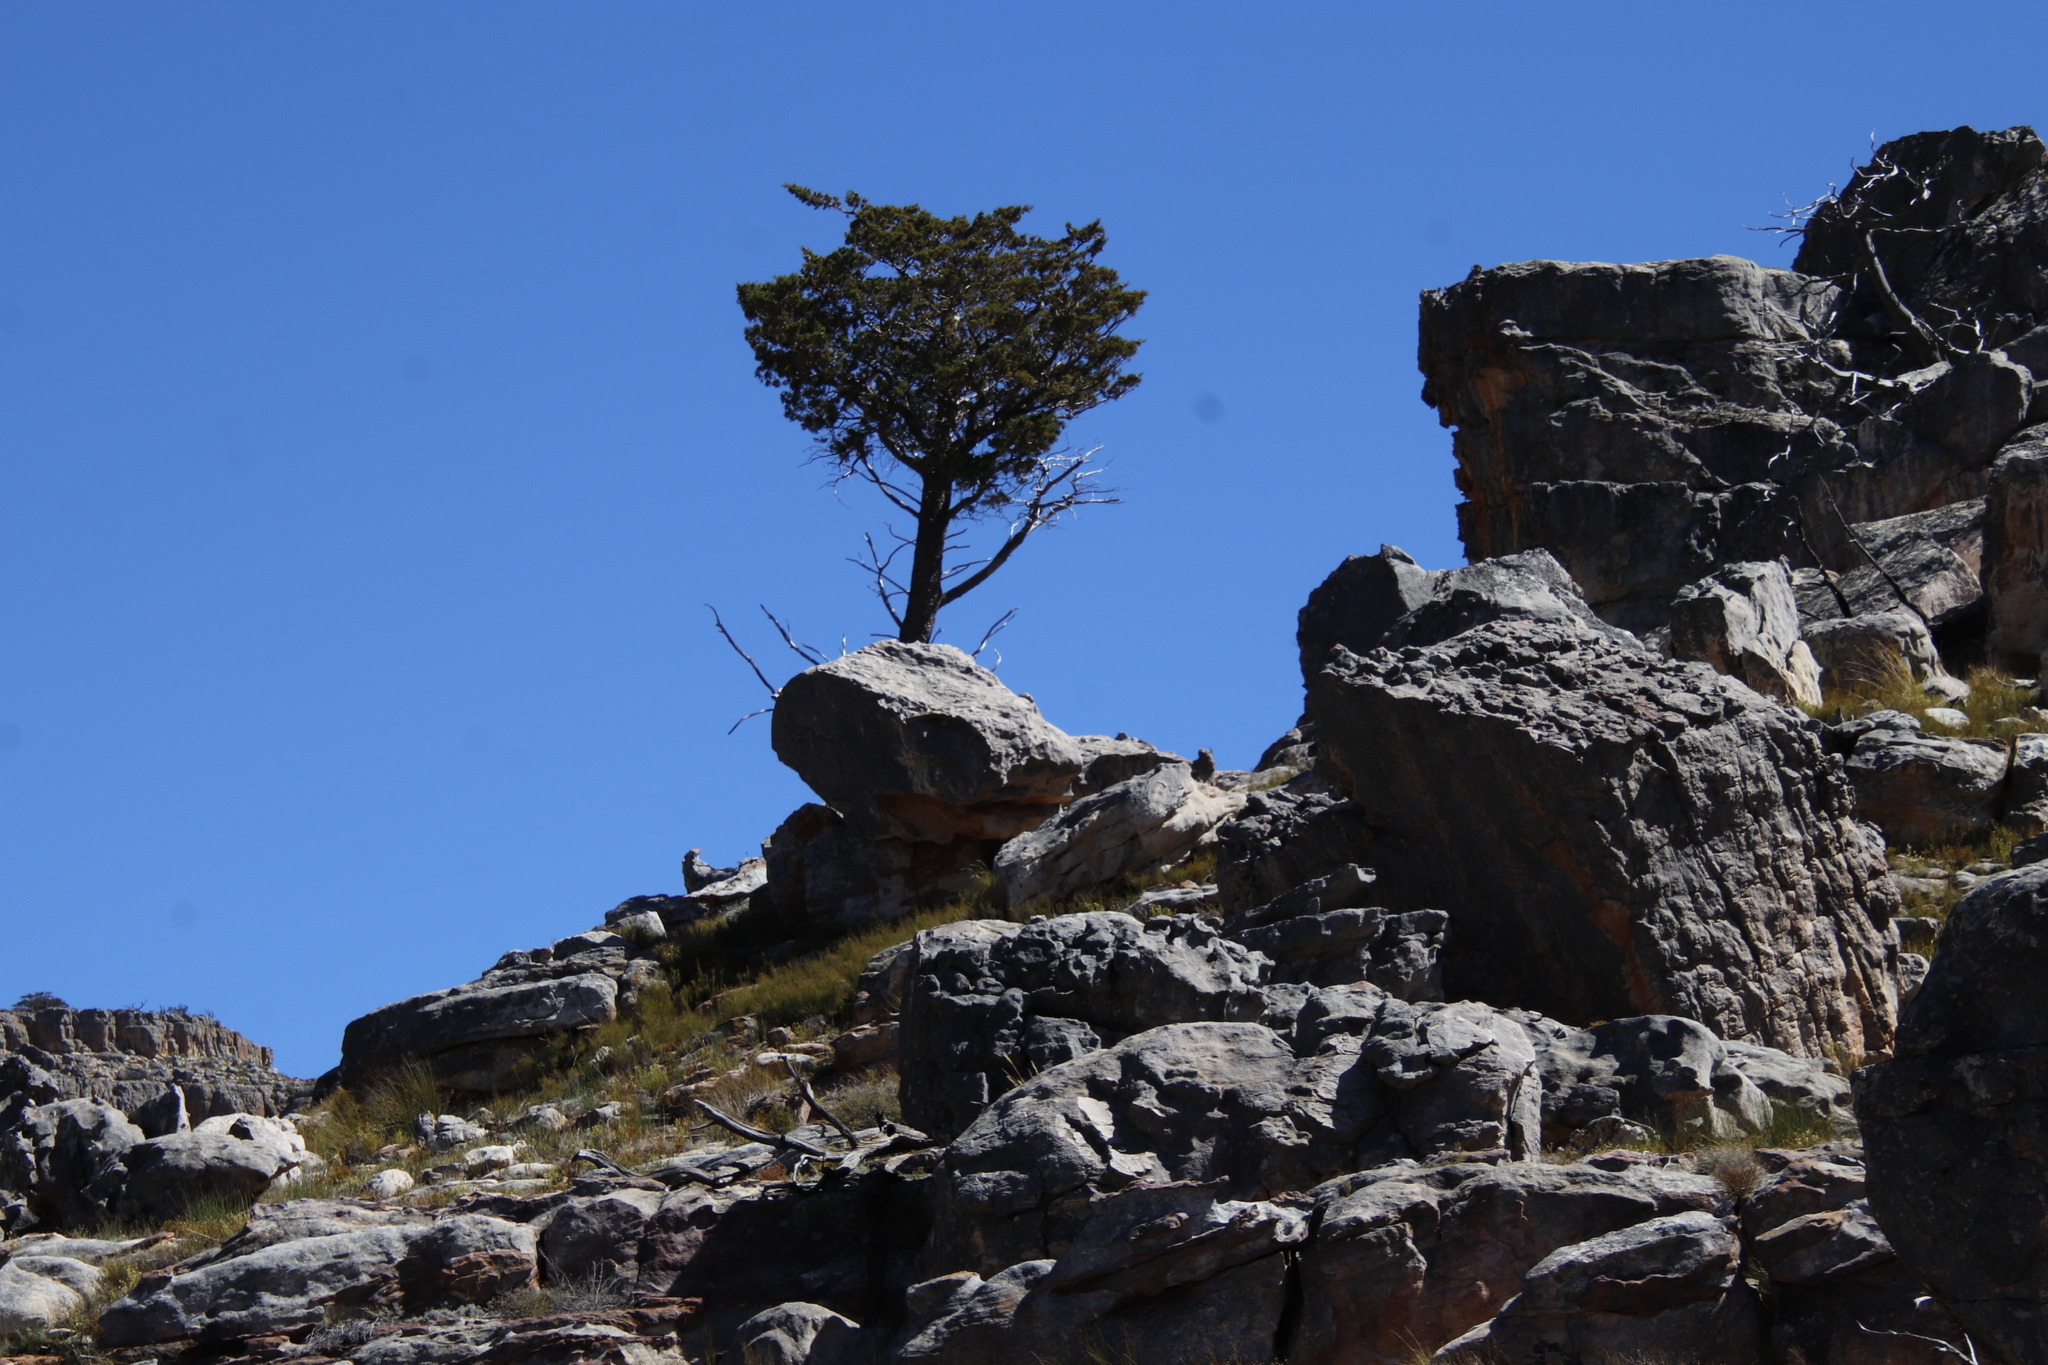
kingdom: Plantae
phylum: Tracheophyta
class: Pinopsida
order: Pinales
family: Cupressaceae
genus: Widdringtonia
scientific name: Widdringtonia nodiflora
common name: Cape cypress
